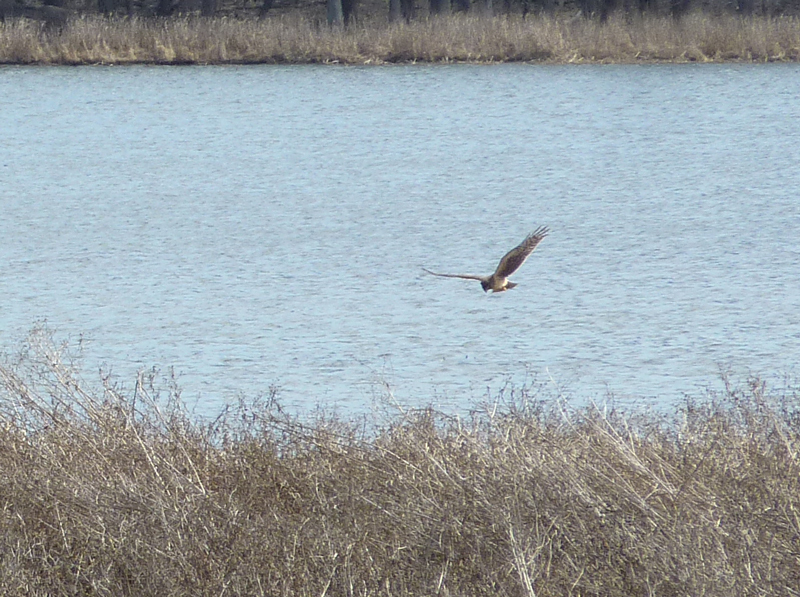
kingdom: Animalia
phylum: Chordata
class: Aves
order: Accipitriformes
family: Accipitridae
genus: Circus
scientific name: Circus cyaneus
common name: Hen harrier
